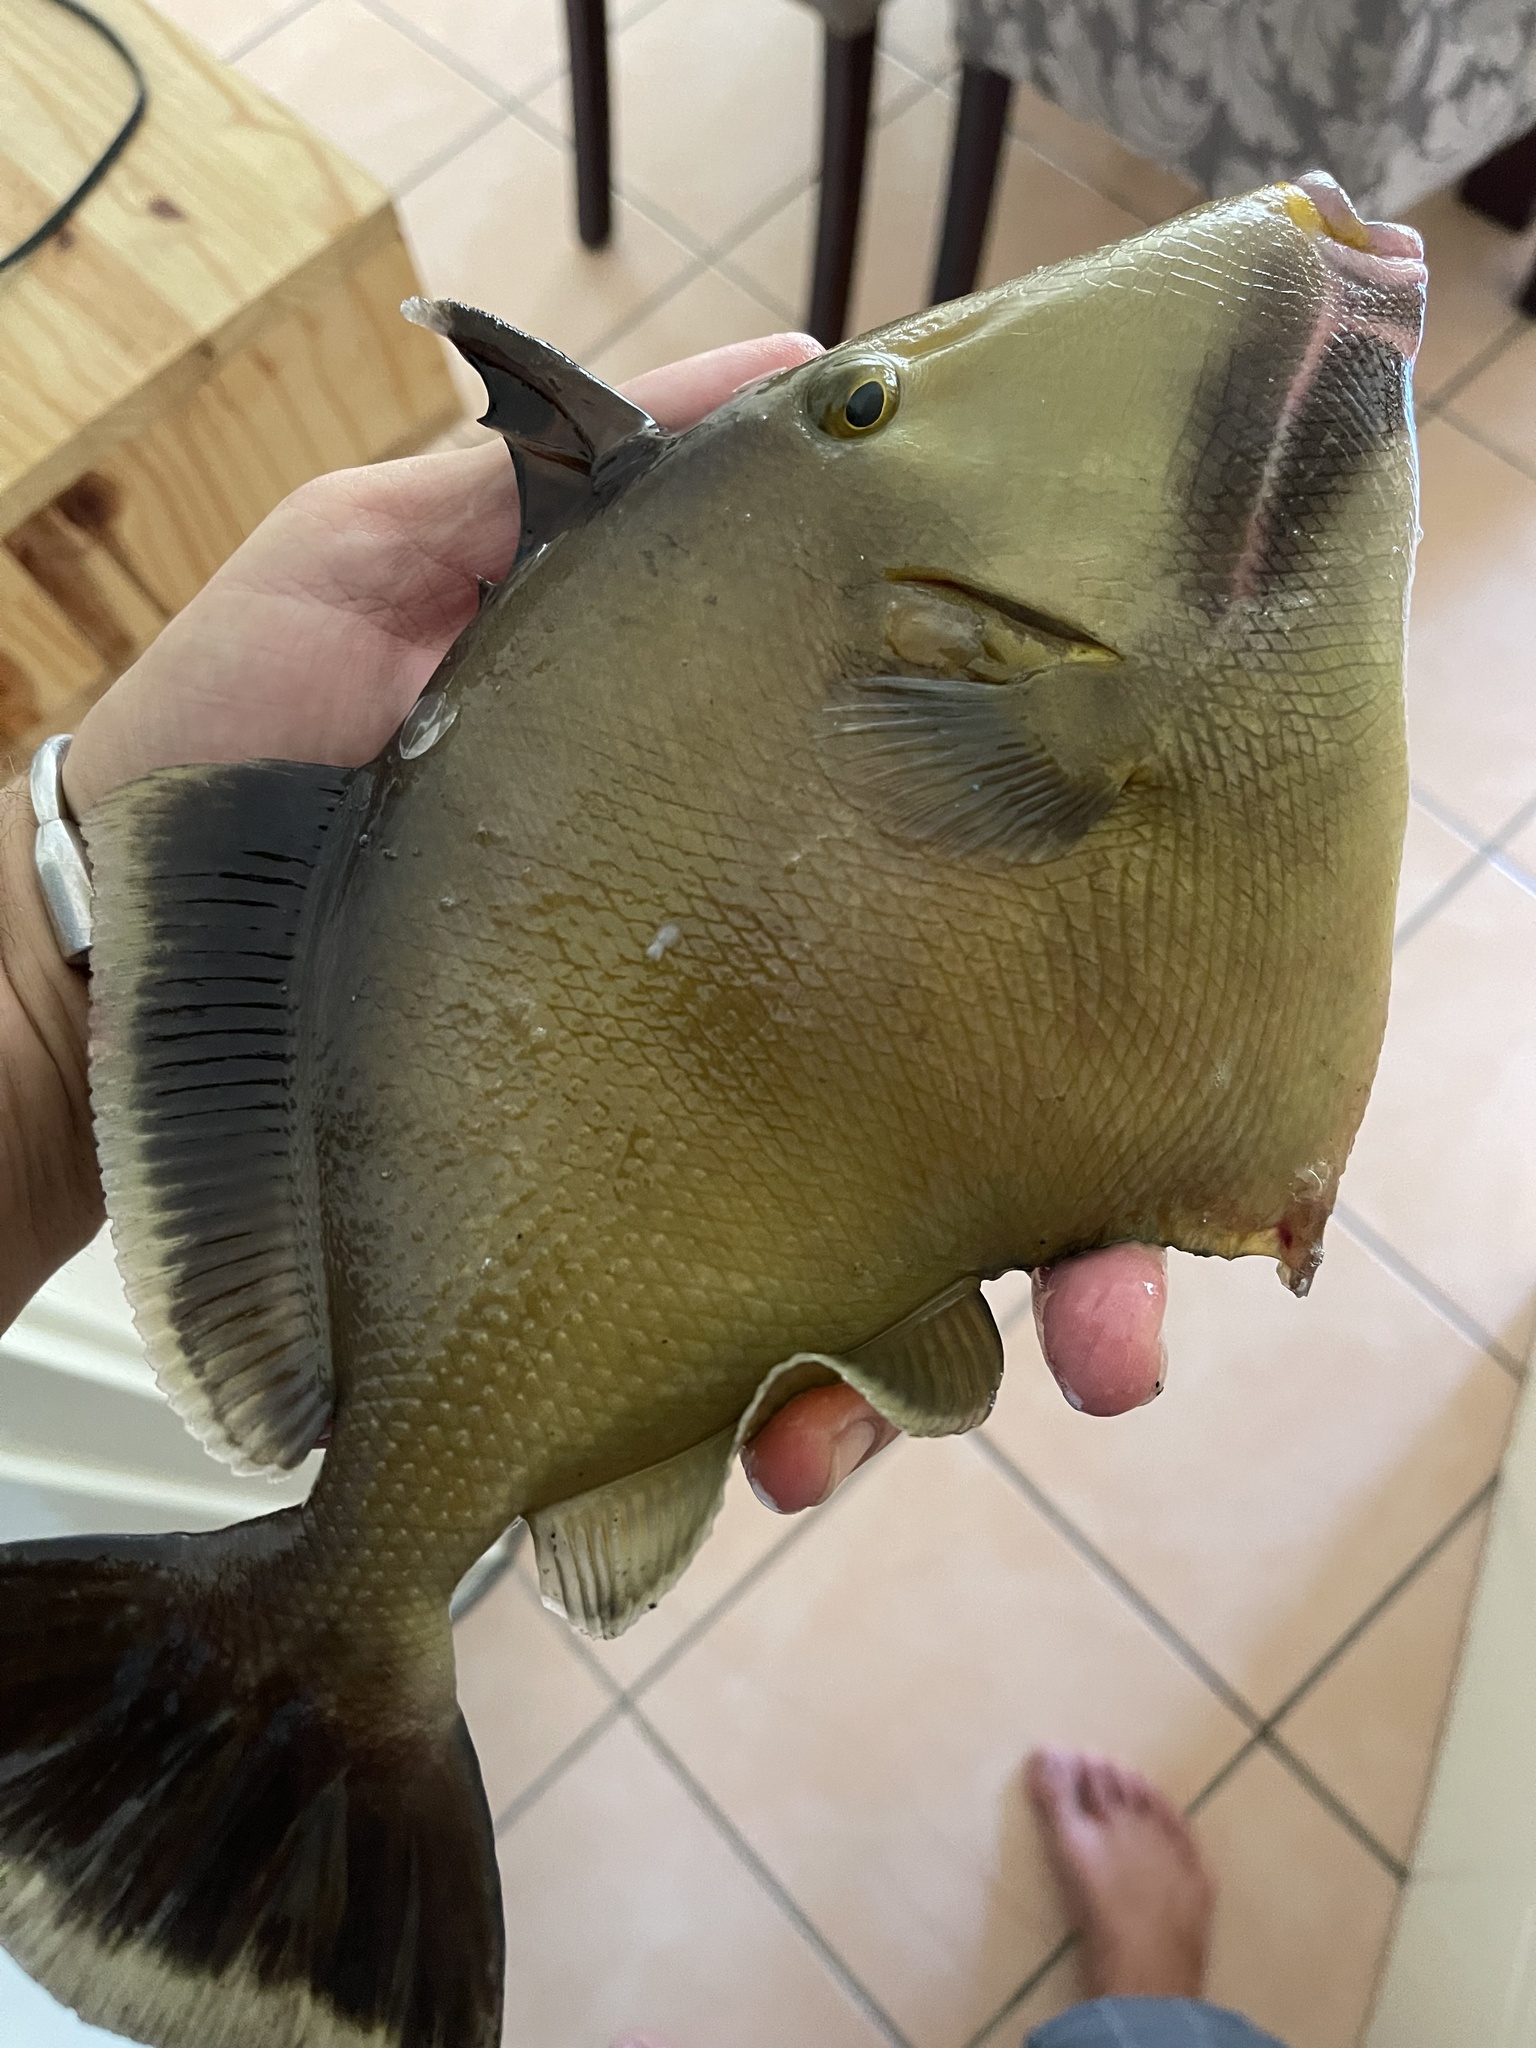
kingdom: Animalia
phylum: Chordata
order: Tetraodontiformes
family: Balistidae
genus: Sufflamen
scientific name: Sufflamen fraenatum
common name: Bridle triggerfish
